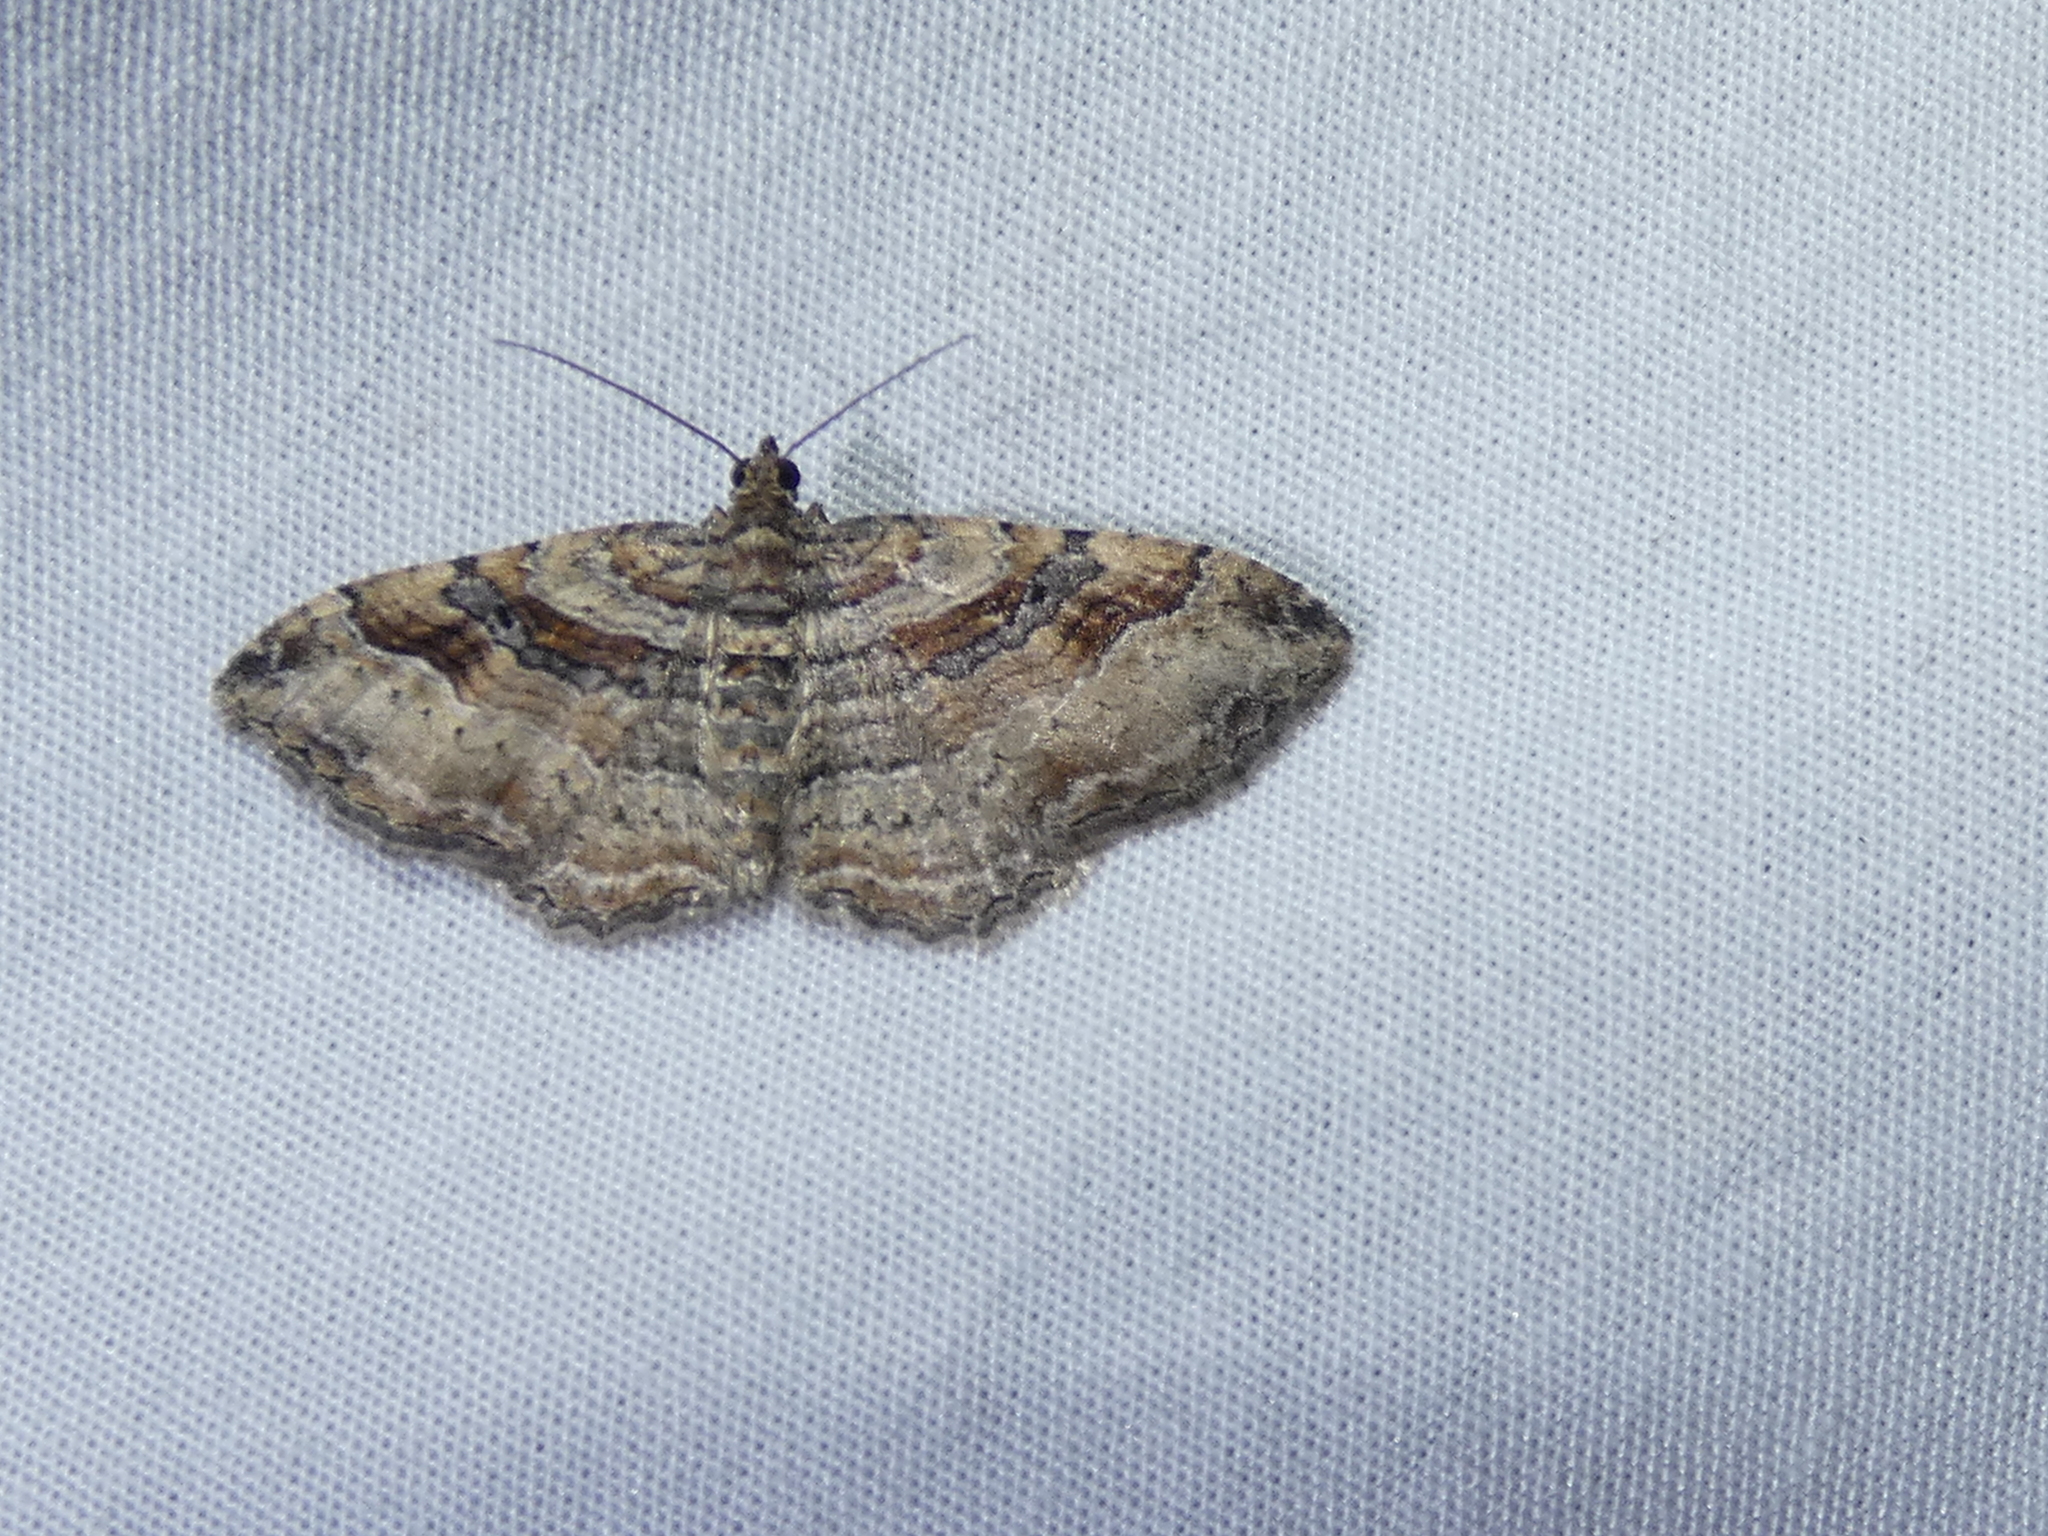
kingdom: Animalia
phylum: Arthropoda
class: Insecta
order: Lepidoptera
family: Geometridae
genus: Costaconvexa
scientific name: Costaconvexa centrostrigaria
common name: Bent-line carpet
